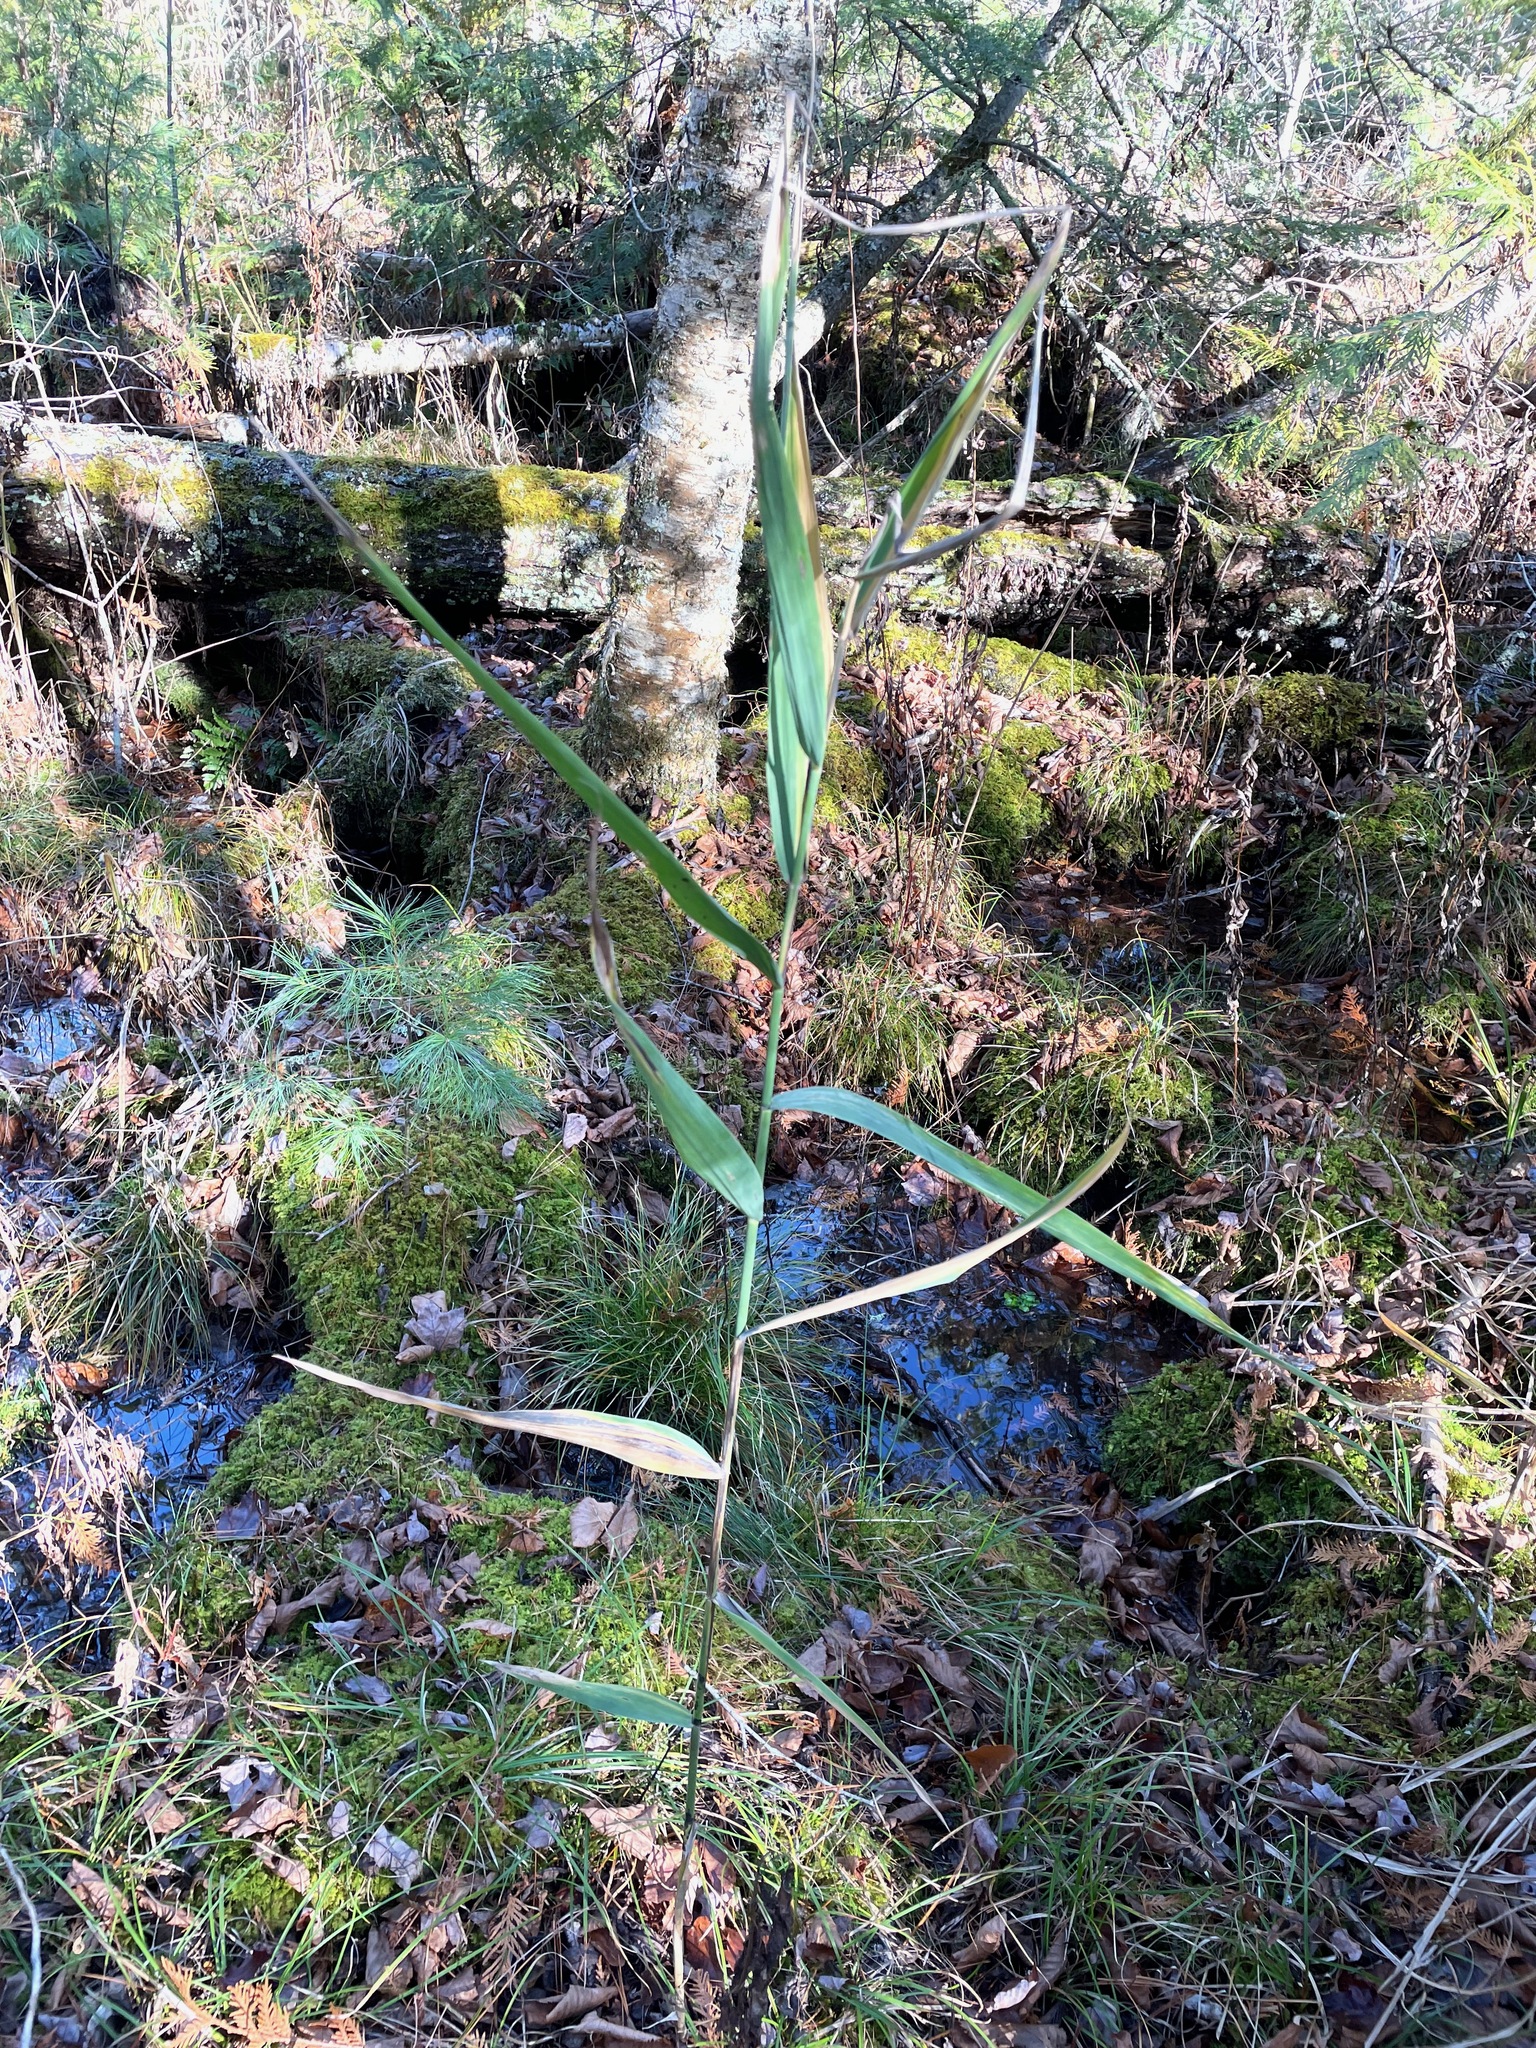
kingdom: Plantae
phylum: Tracheophyta
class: Liliopsida
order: Poales
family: Poaceae
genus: Phragmites
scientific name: Phragmites australis
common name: Common reed
